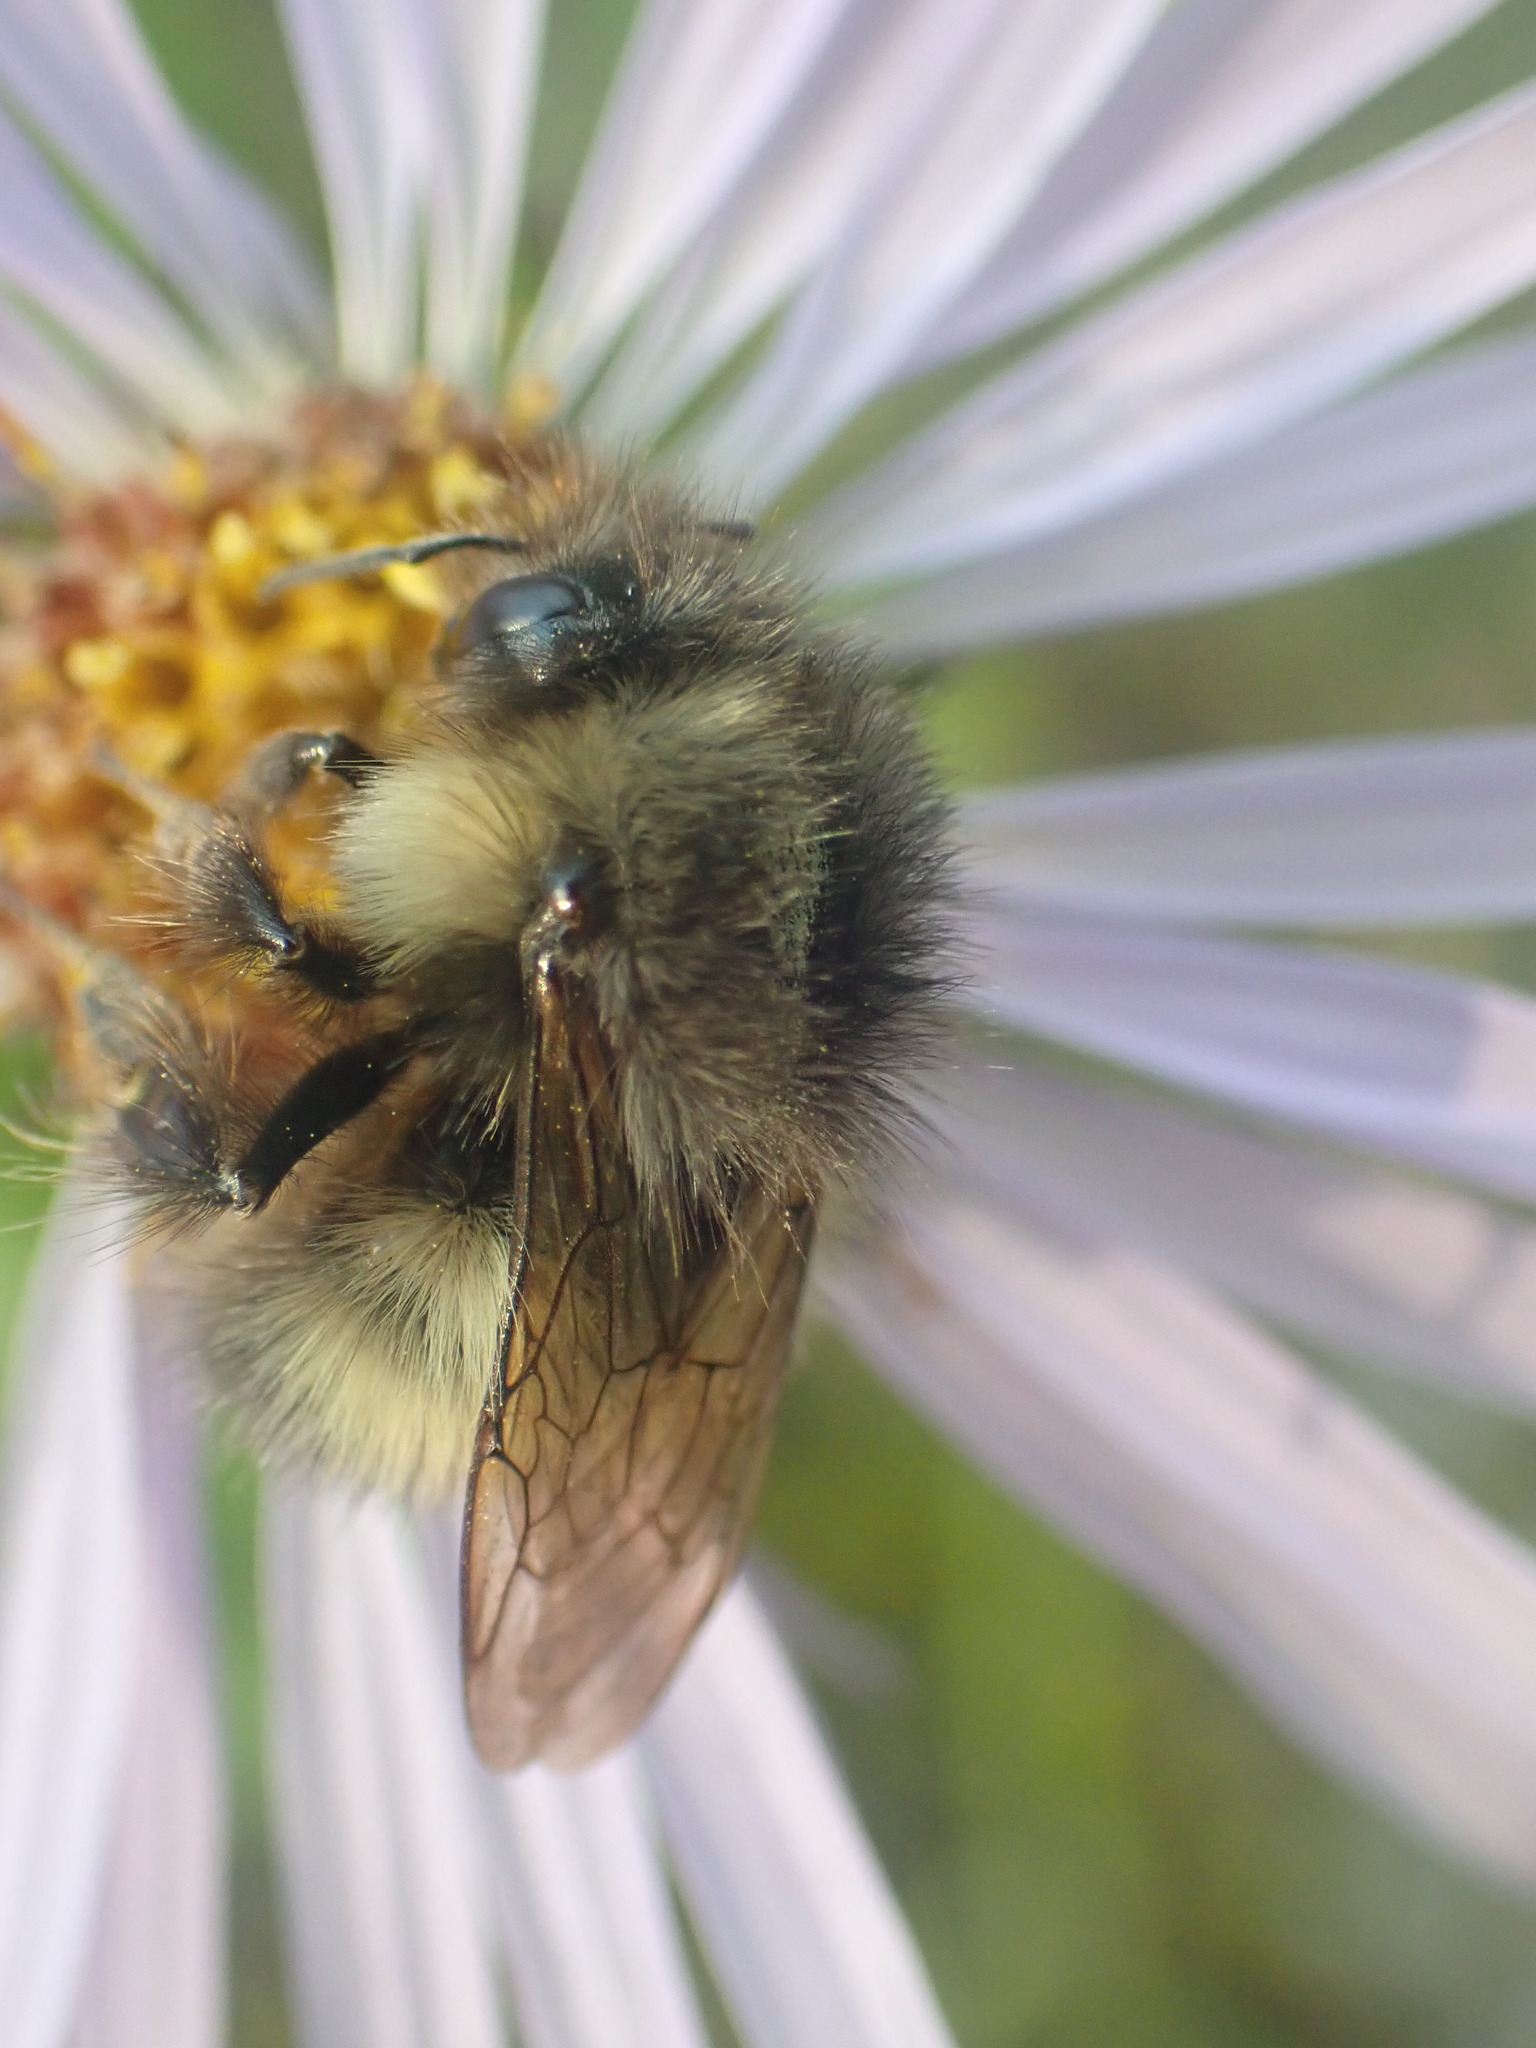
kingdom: Animalia
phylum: Arthropoda
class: Insecta
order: Hymenoptera
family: Apidae
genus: Bombus
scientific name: Bombus sitkensis
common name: Sitka bumble bee
